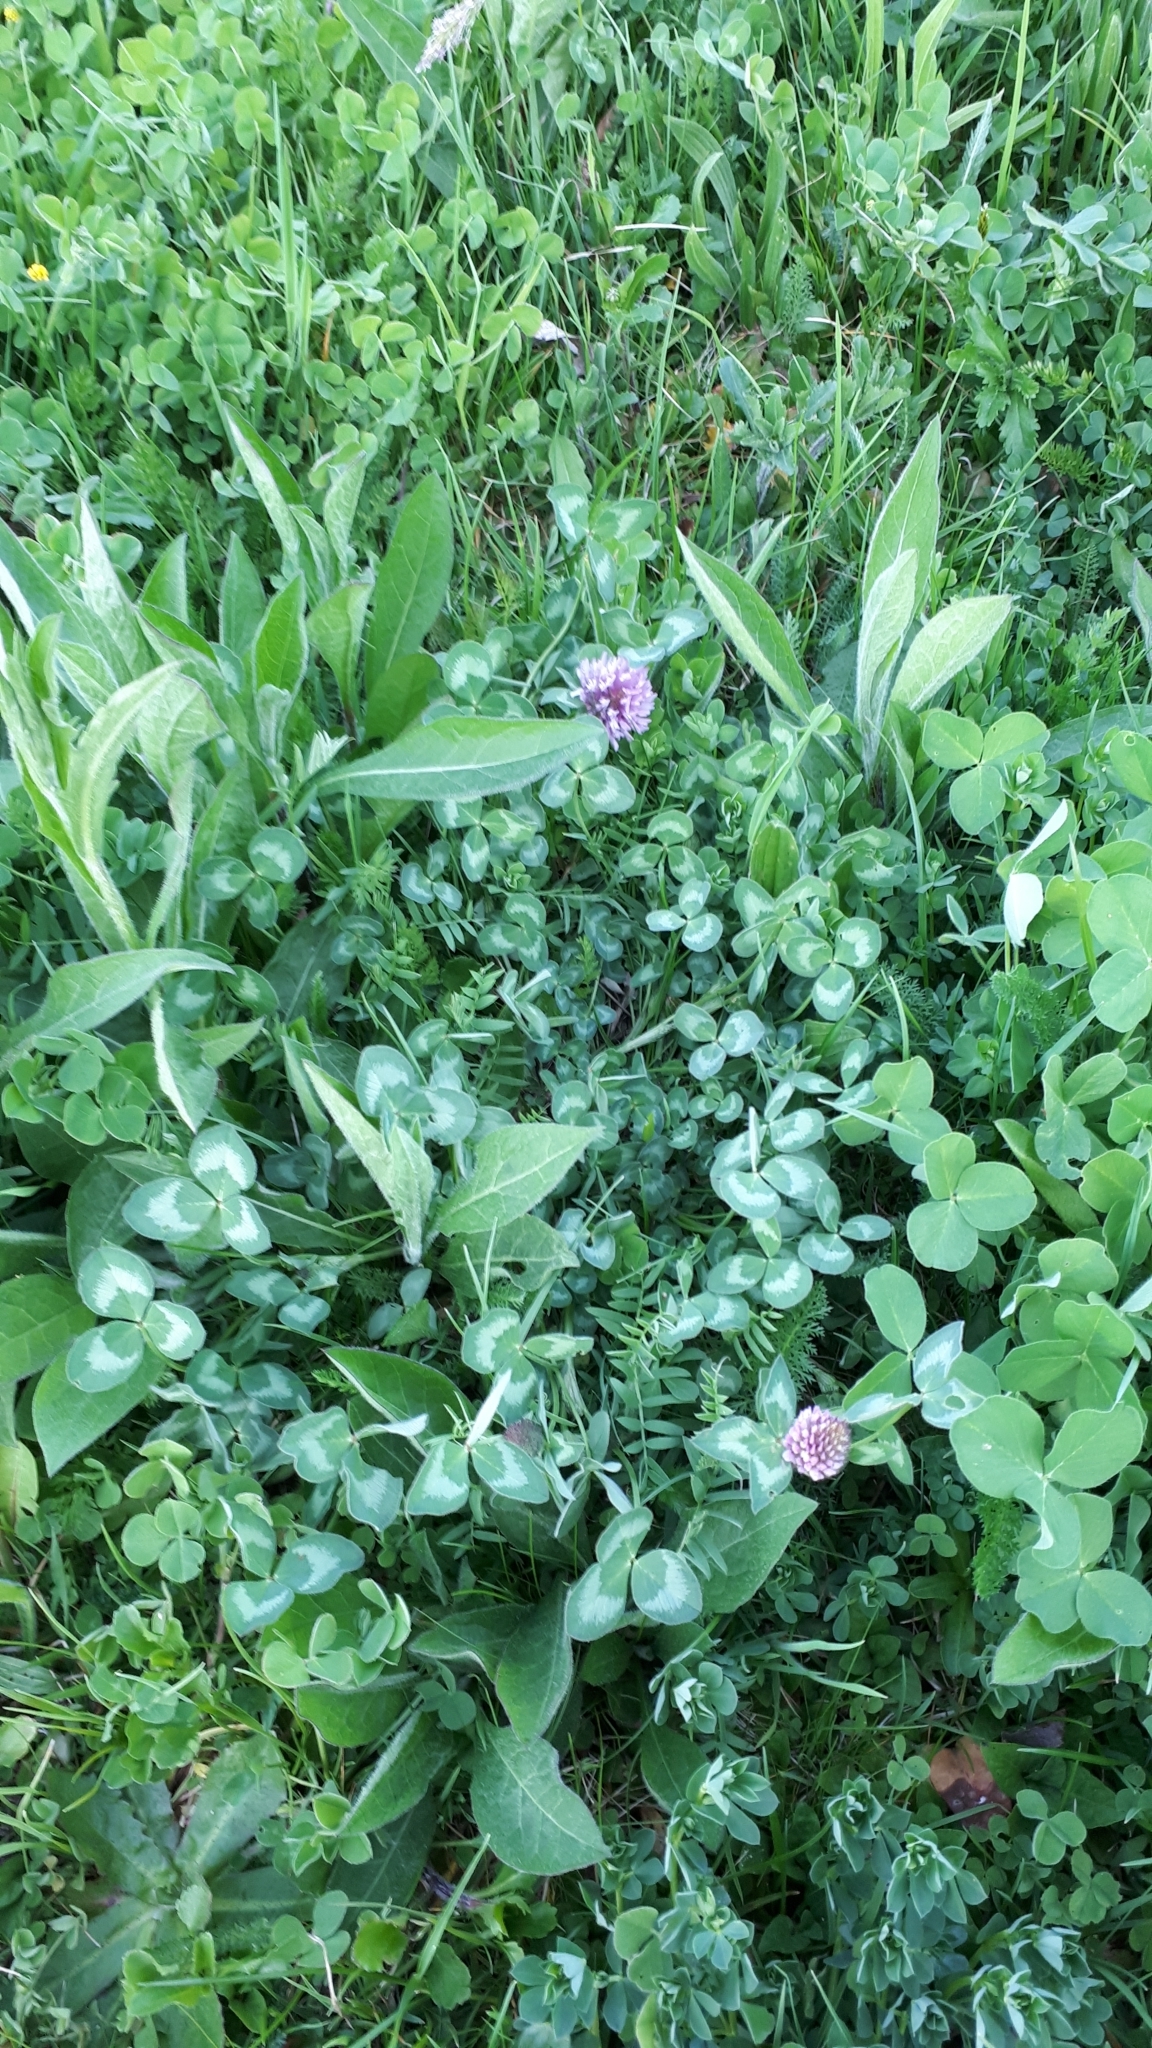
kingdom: Plantae
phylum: Tracheophyta
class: Magnoliopsida
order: Fabales
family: Fabaceae
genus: Trifolium
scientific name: Trifolium pratense
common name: Red clover
